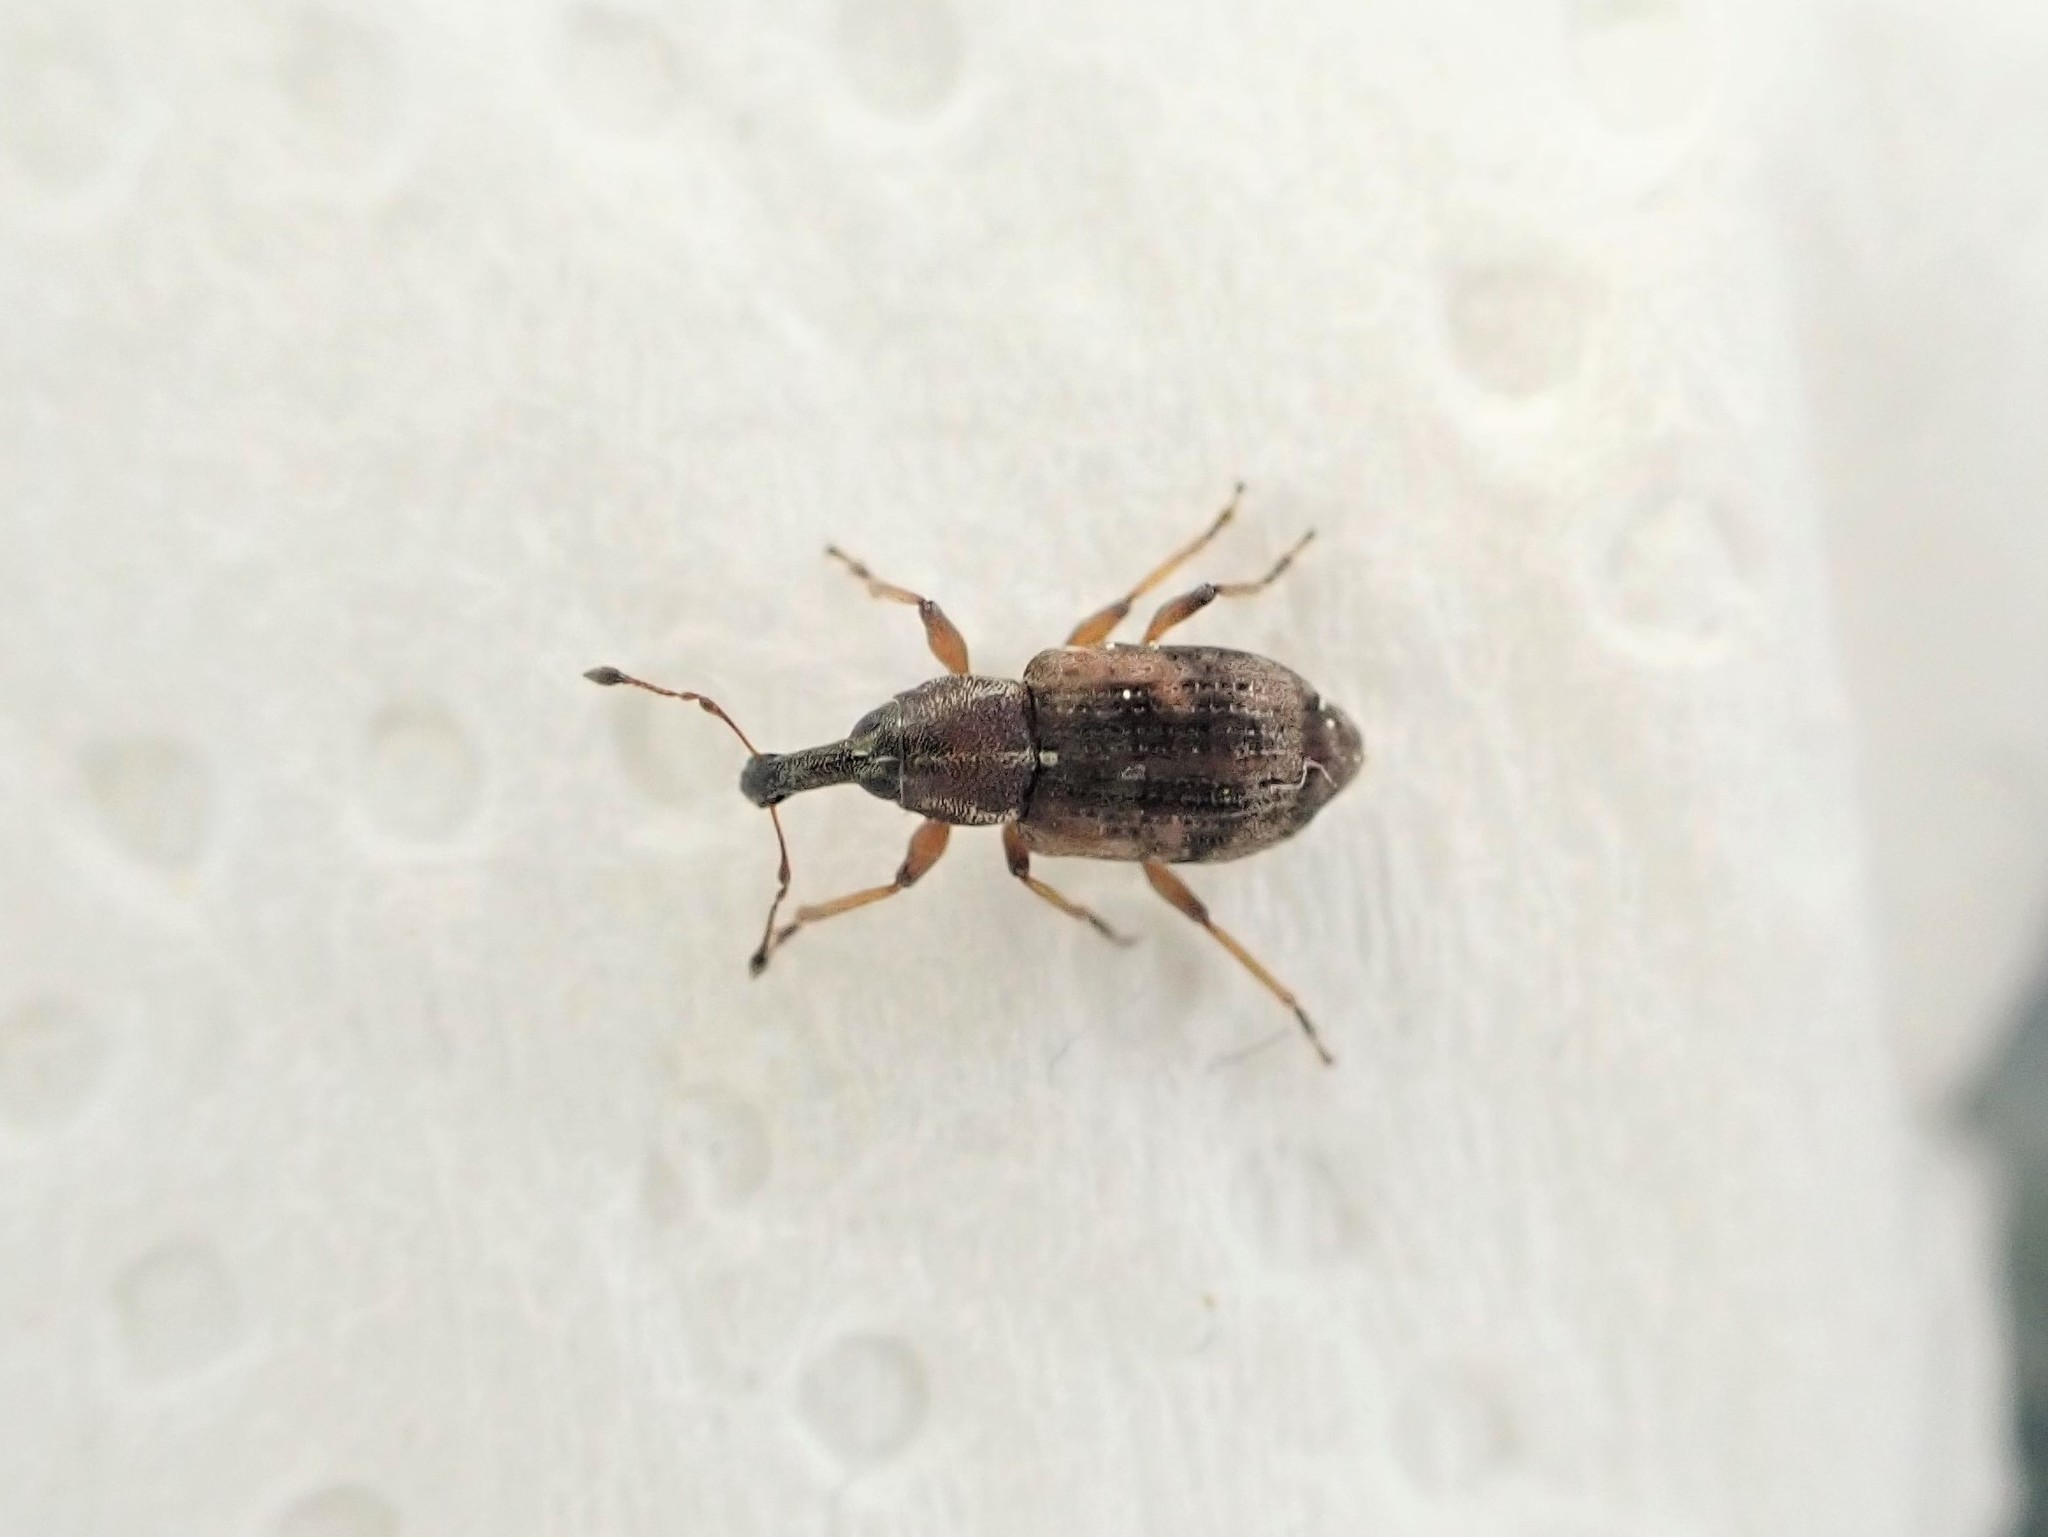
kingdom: Animalia
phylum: Arthropoda
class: Insecta
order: Coleoptera
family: Curculionidae
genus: Steriphus
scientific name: Steriphus
